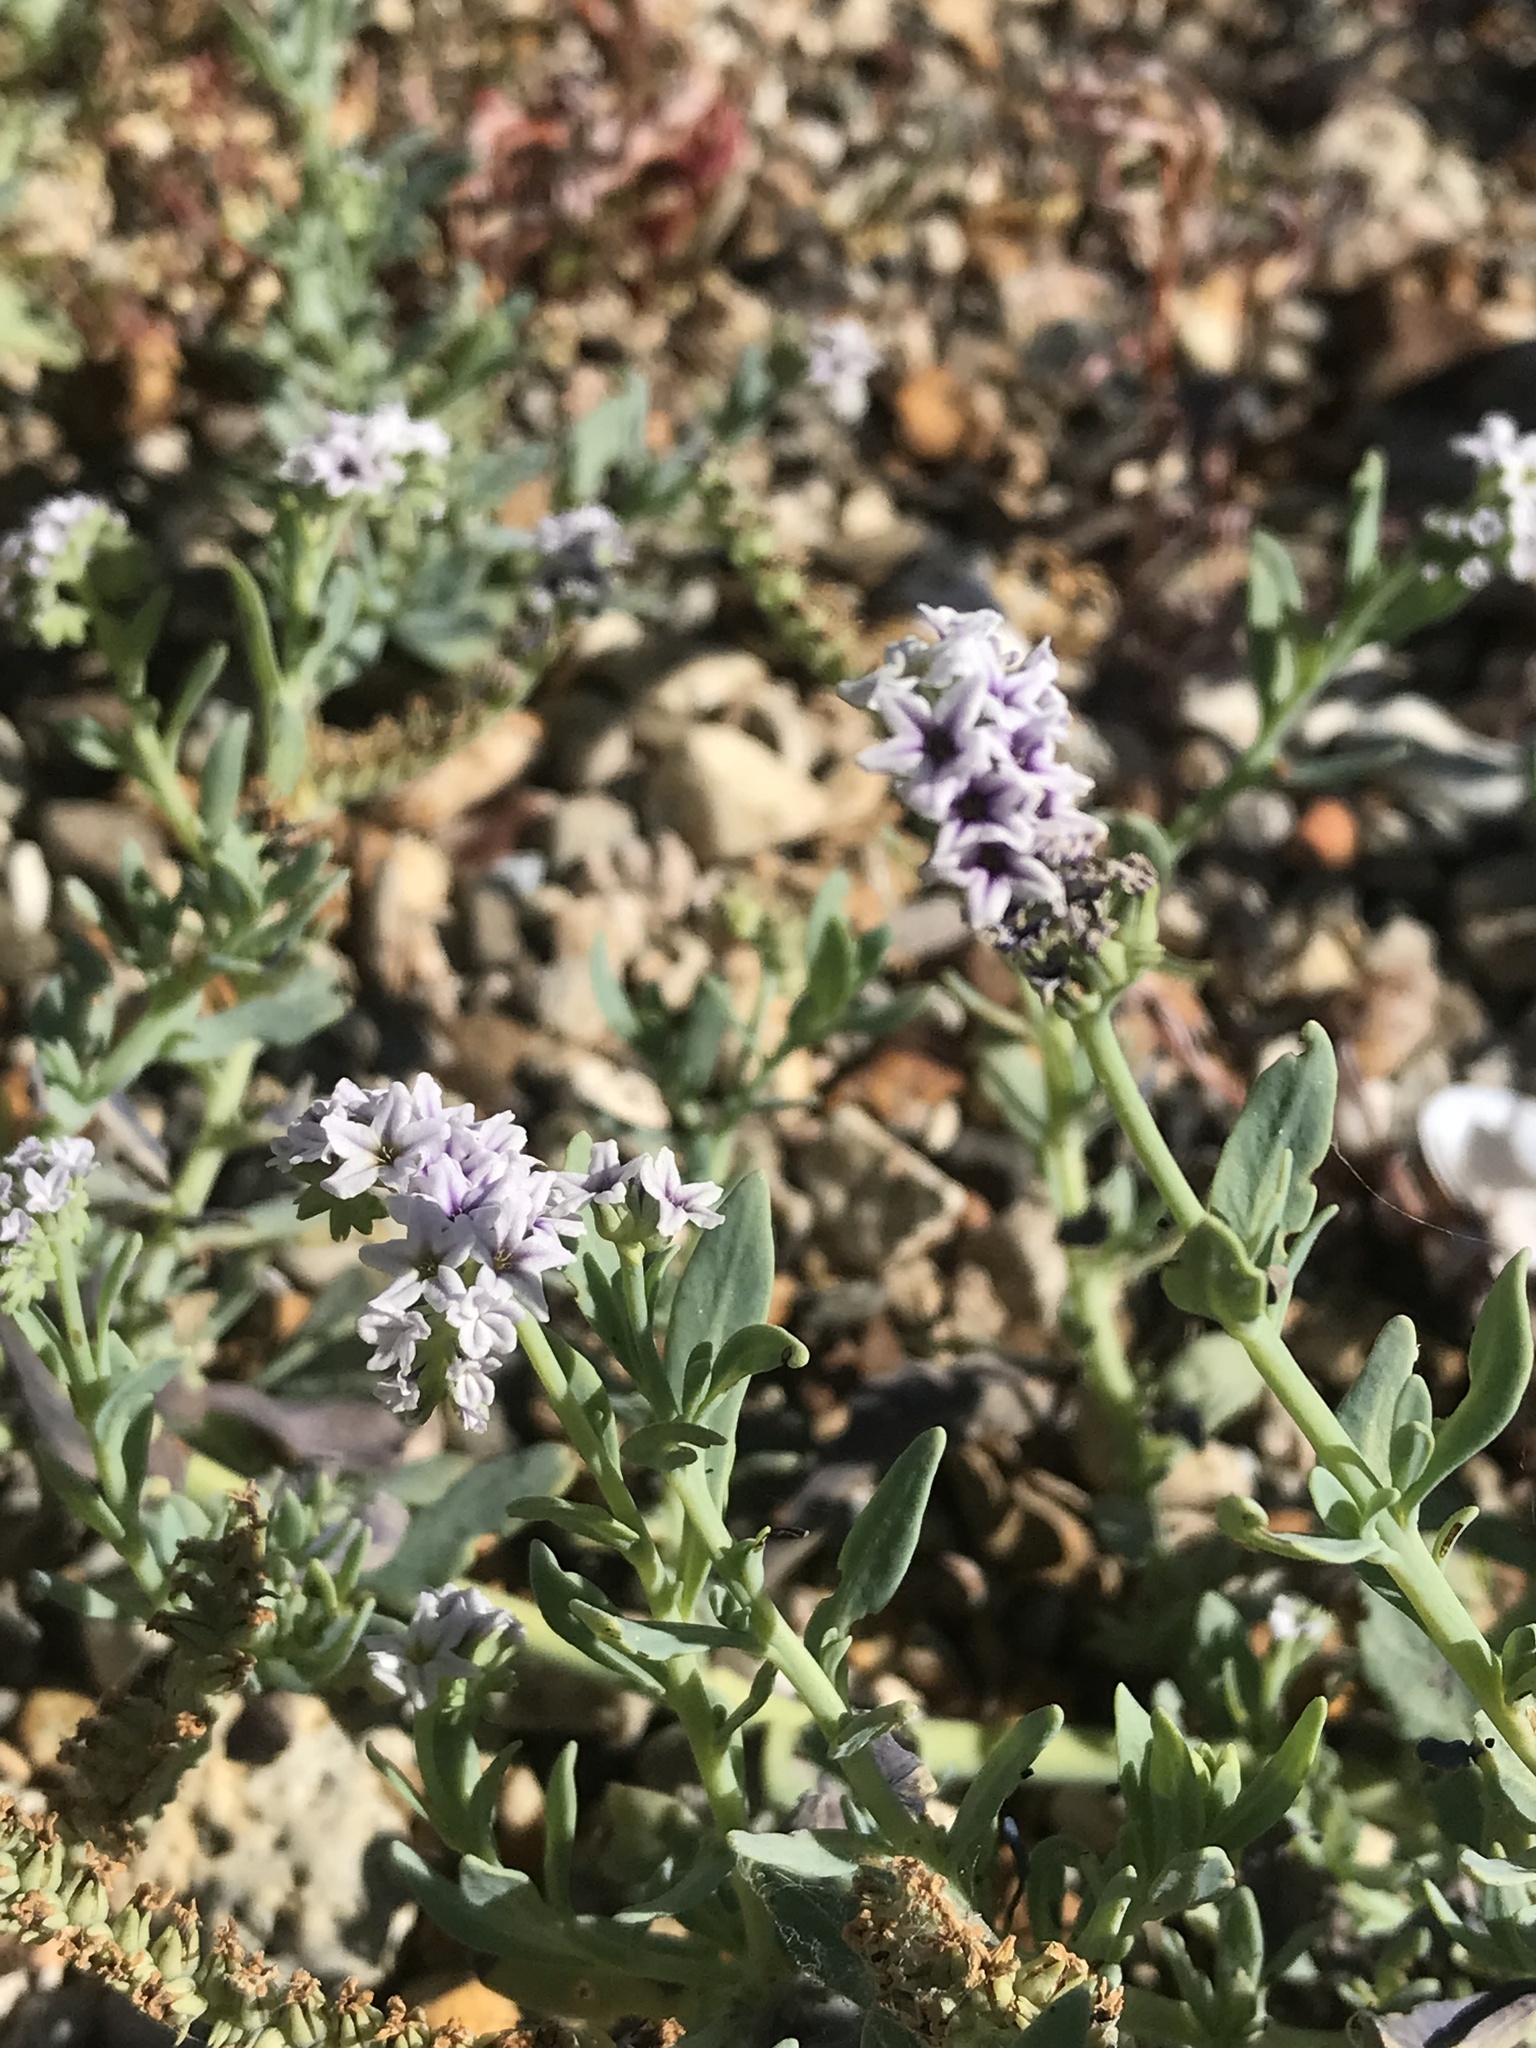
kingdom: Plantae
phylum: Tracheophyta
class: Magnoliopsida
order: Boraginales
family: Heliotropiaceae
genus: Heliotropium
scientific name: Heliotropium curassavicum
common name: Seaside heliotrope
